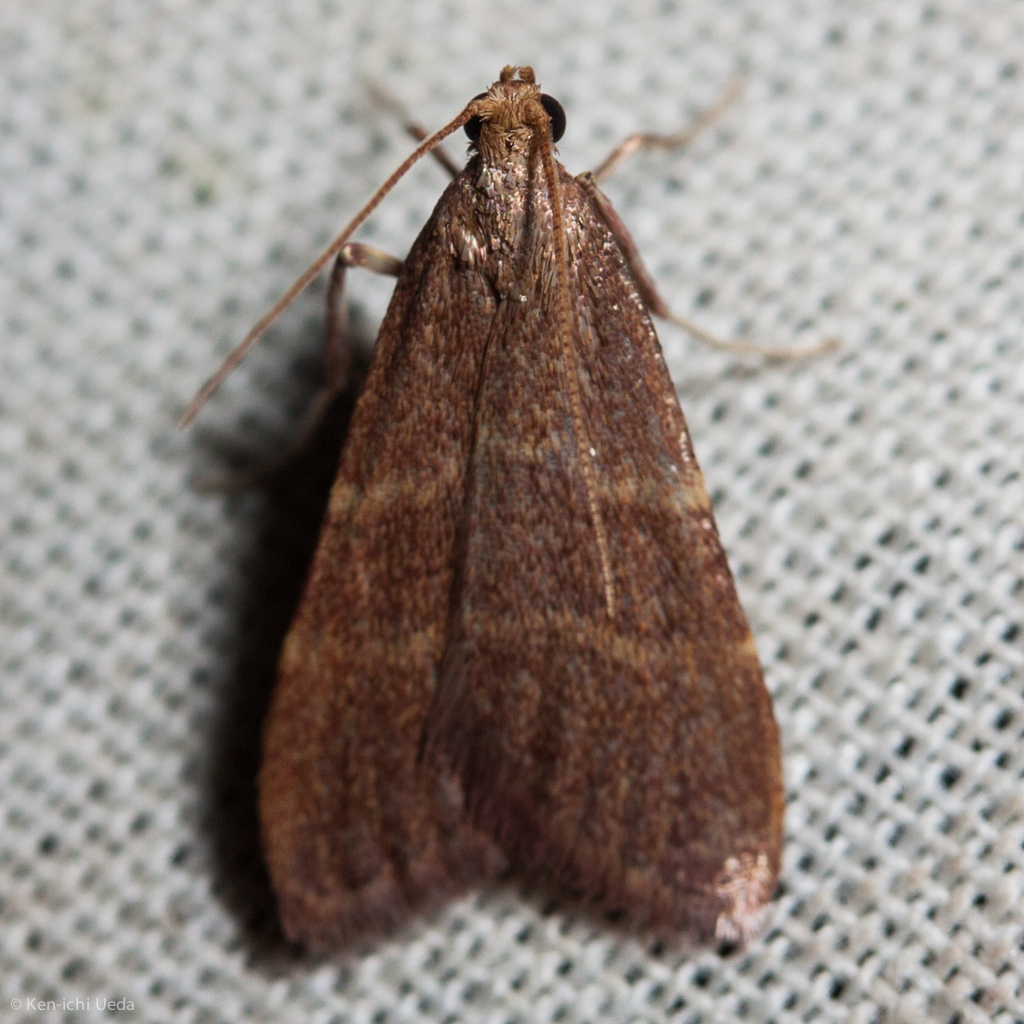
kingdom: Animalia
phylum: Arthropoda
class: Insecta
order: Lepidoptera
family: Pyralidae
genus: Arta
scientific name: Arta epicoenalis
